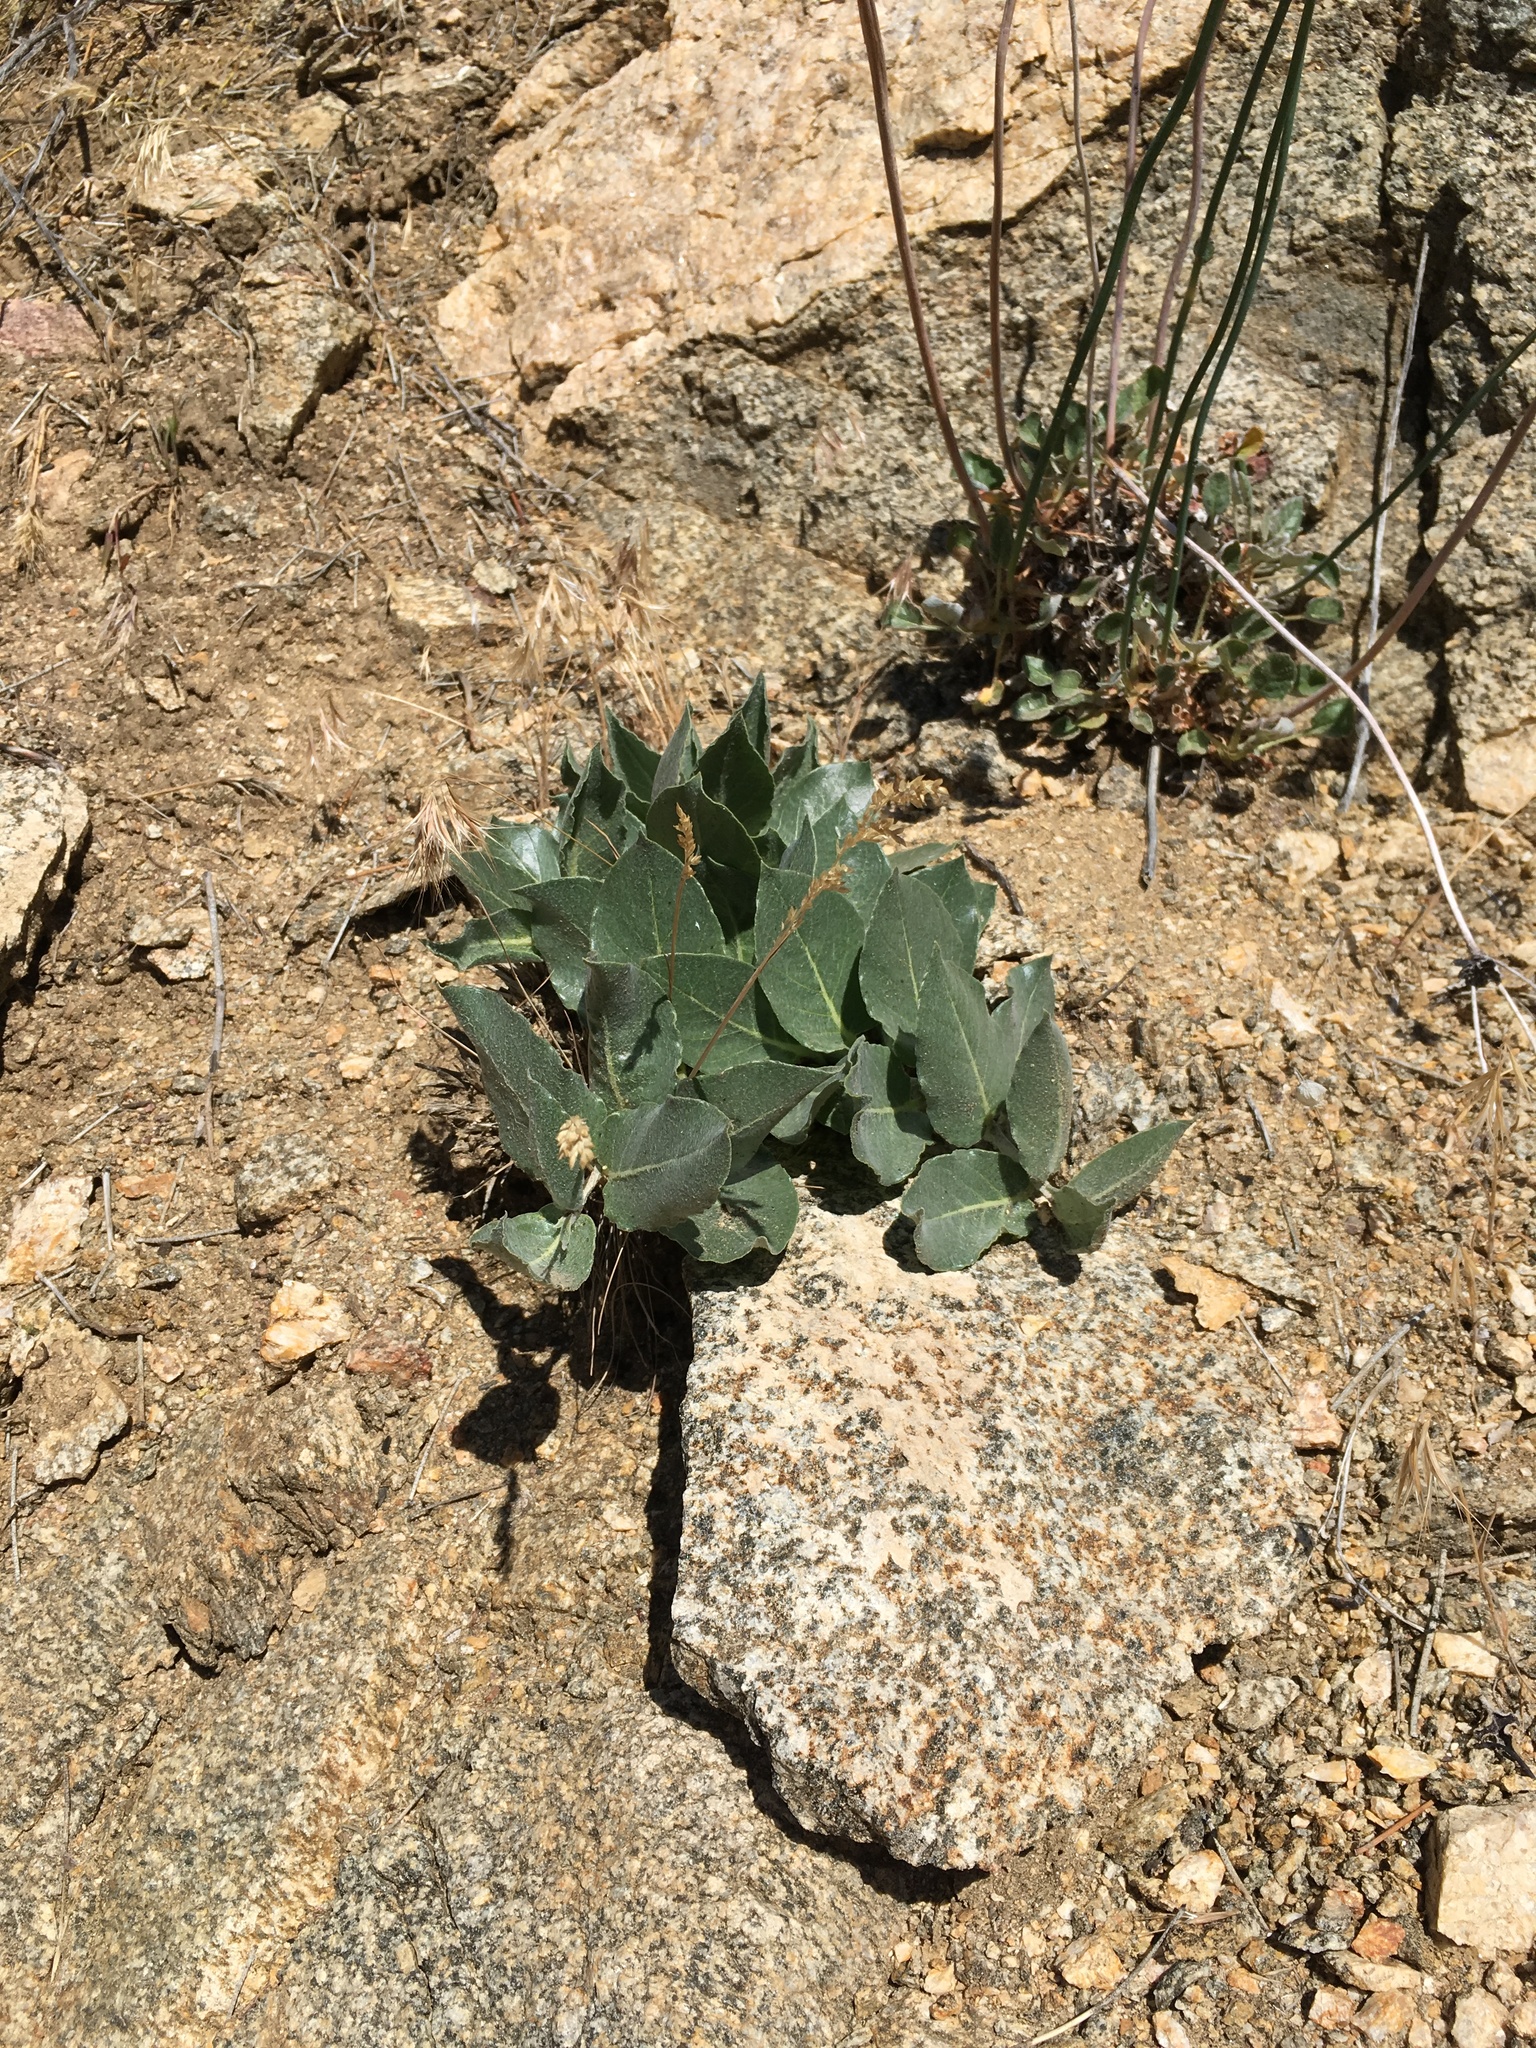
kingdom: Plantae
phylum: Tracheophyta
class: Magnoliopsida
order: Gentianales
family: Apocynaceae
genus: Asclepias
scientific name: Asclepias californica
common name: California milkweed
